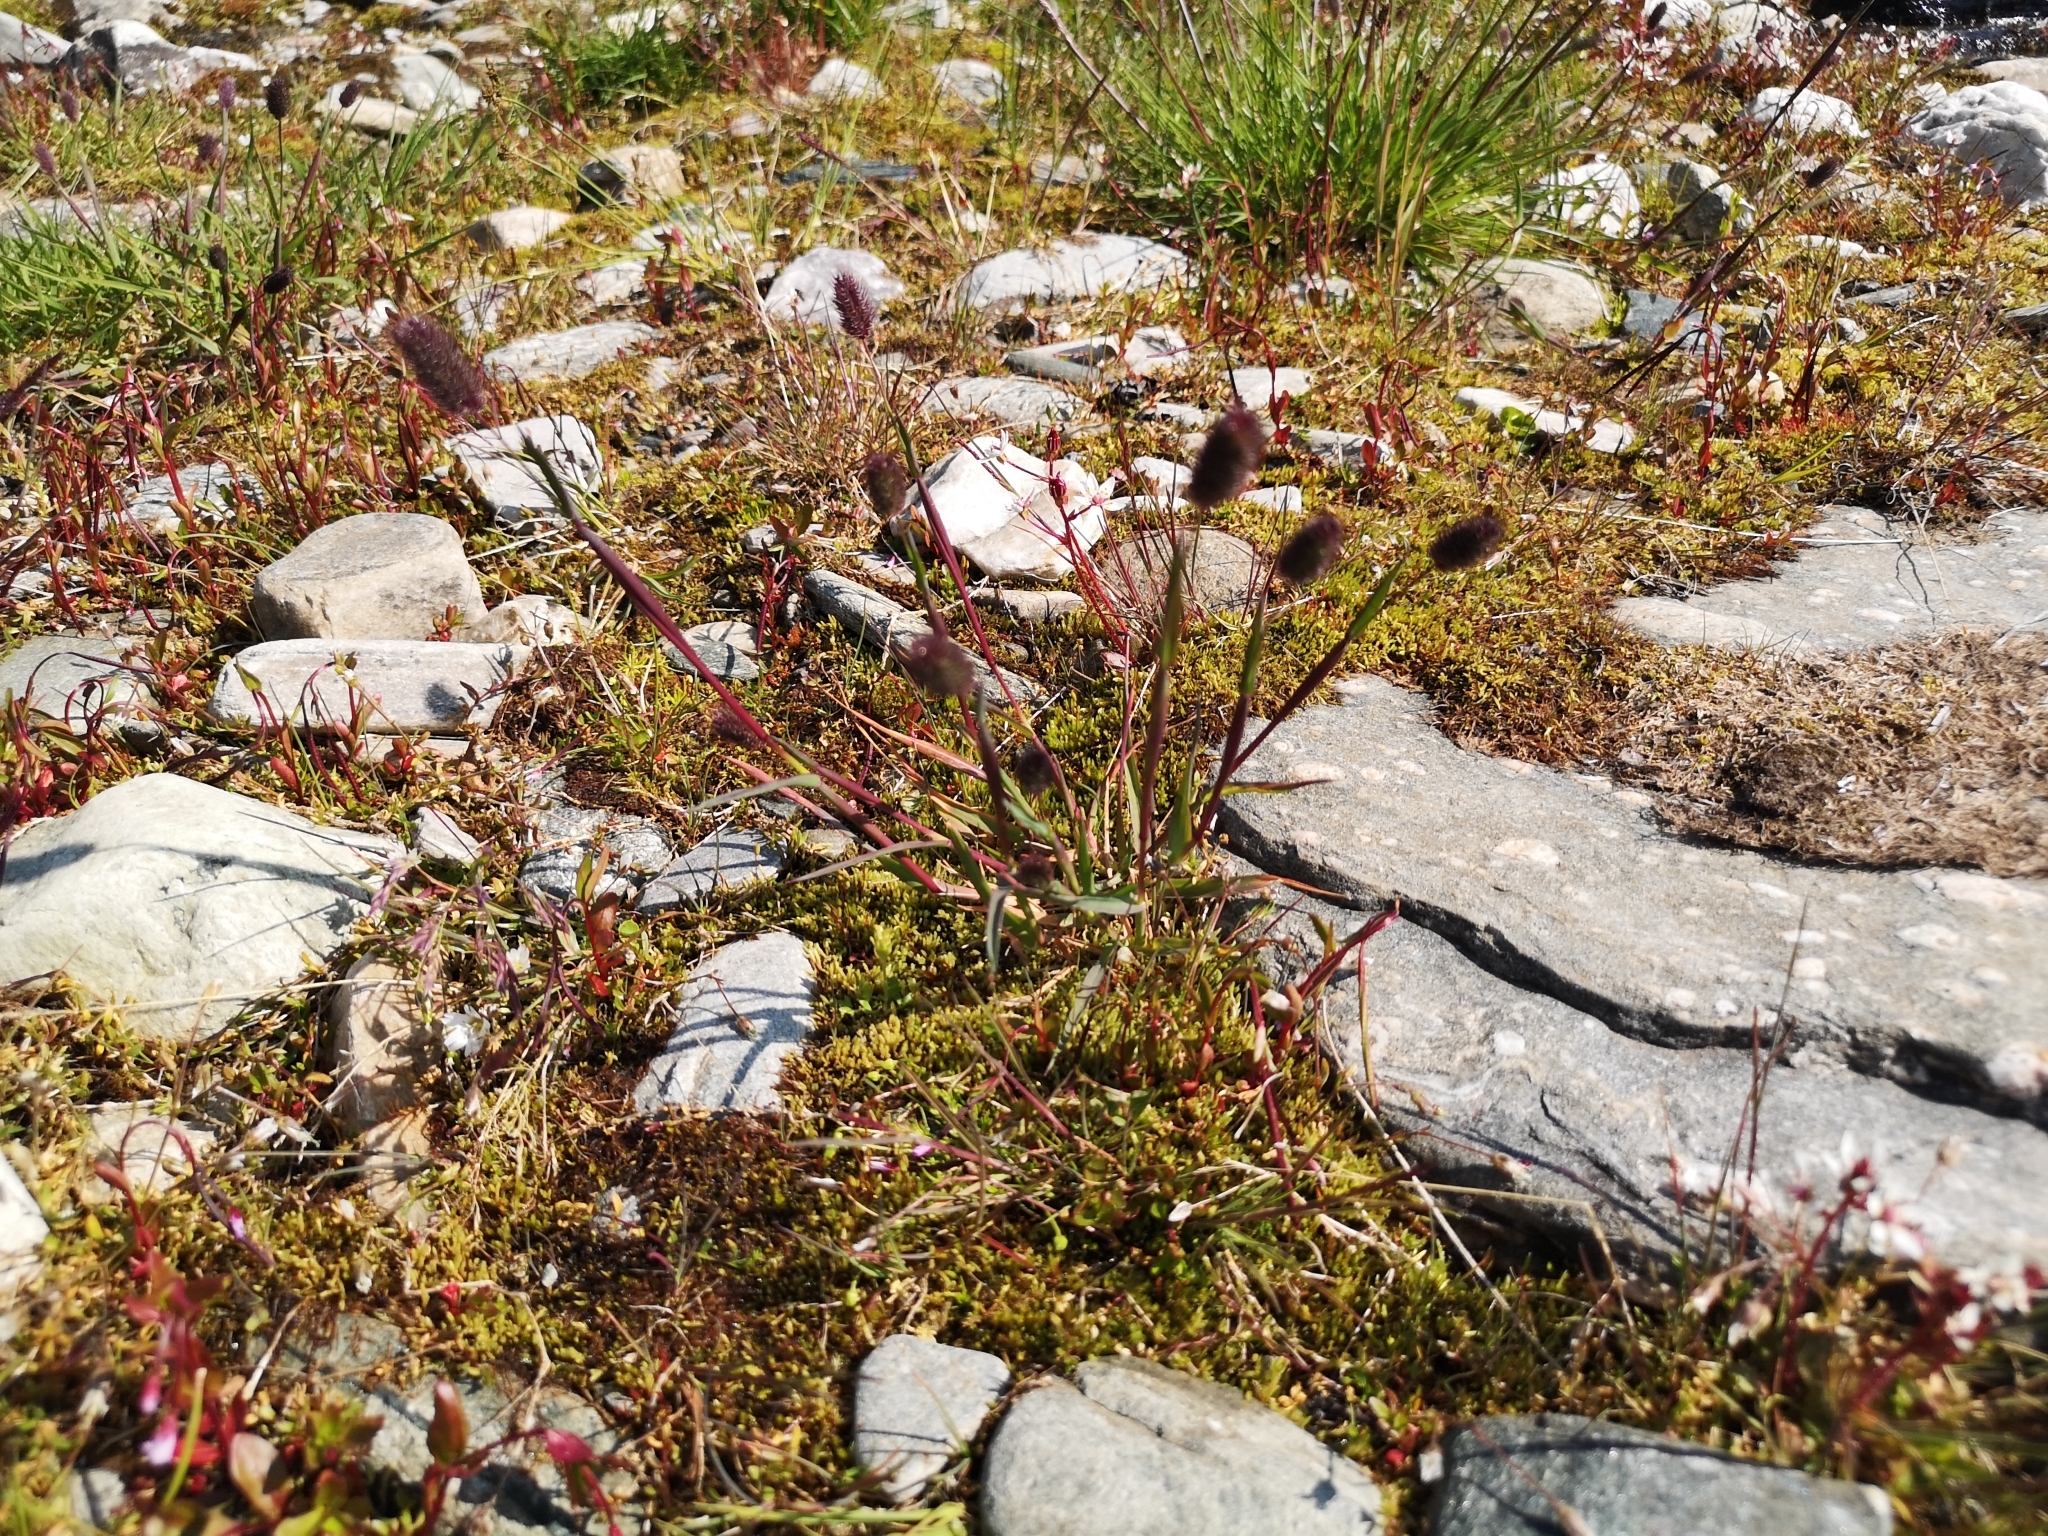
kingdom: Plantae
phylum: Tracheophyta
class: Liliopsida
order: Poales
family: Poaceae
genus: Phleum
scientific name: Phleum alpinum
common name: Alpine cat's-tail
